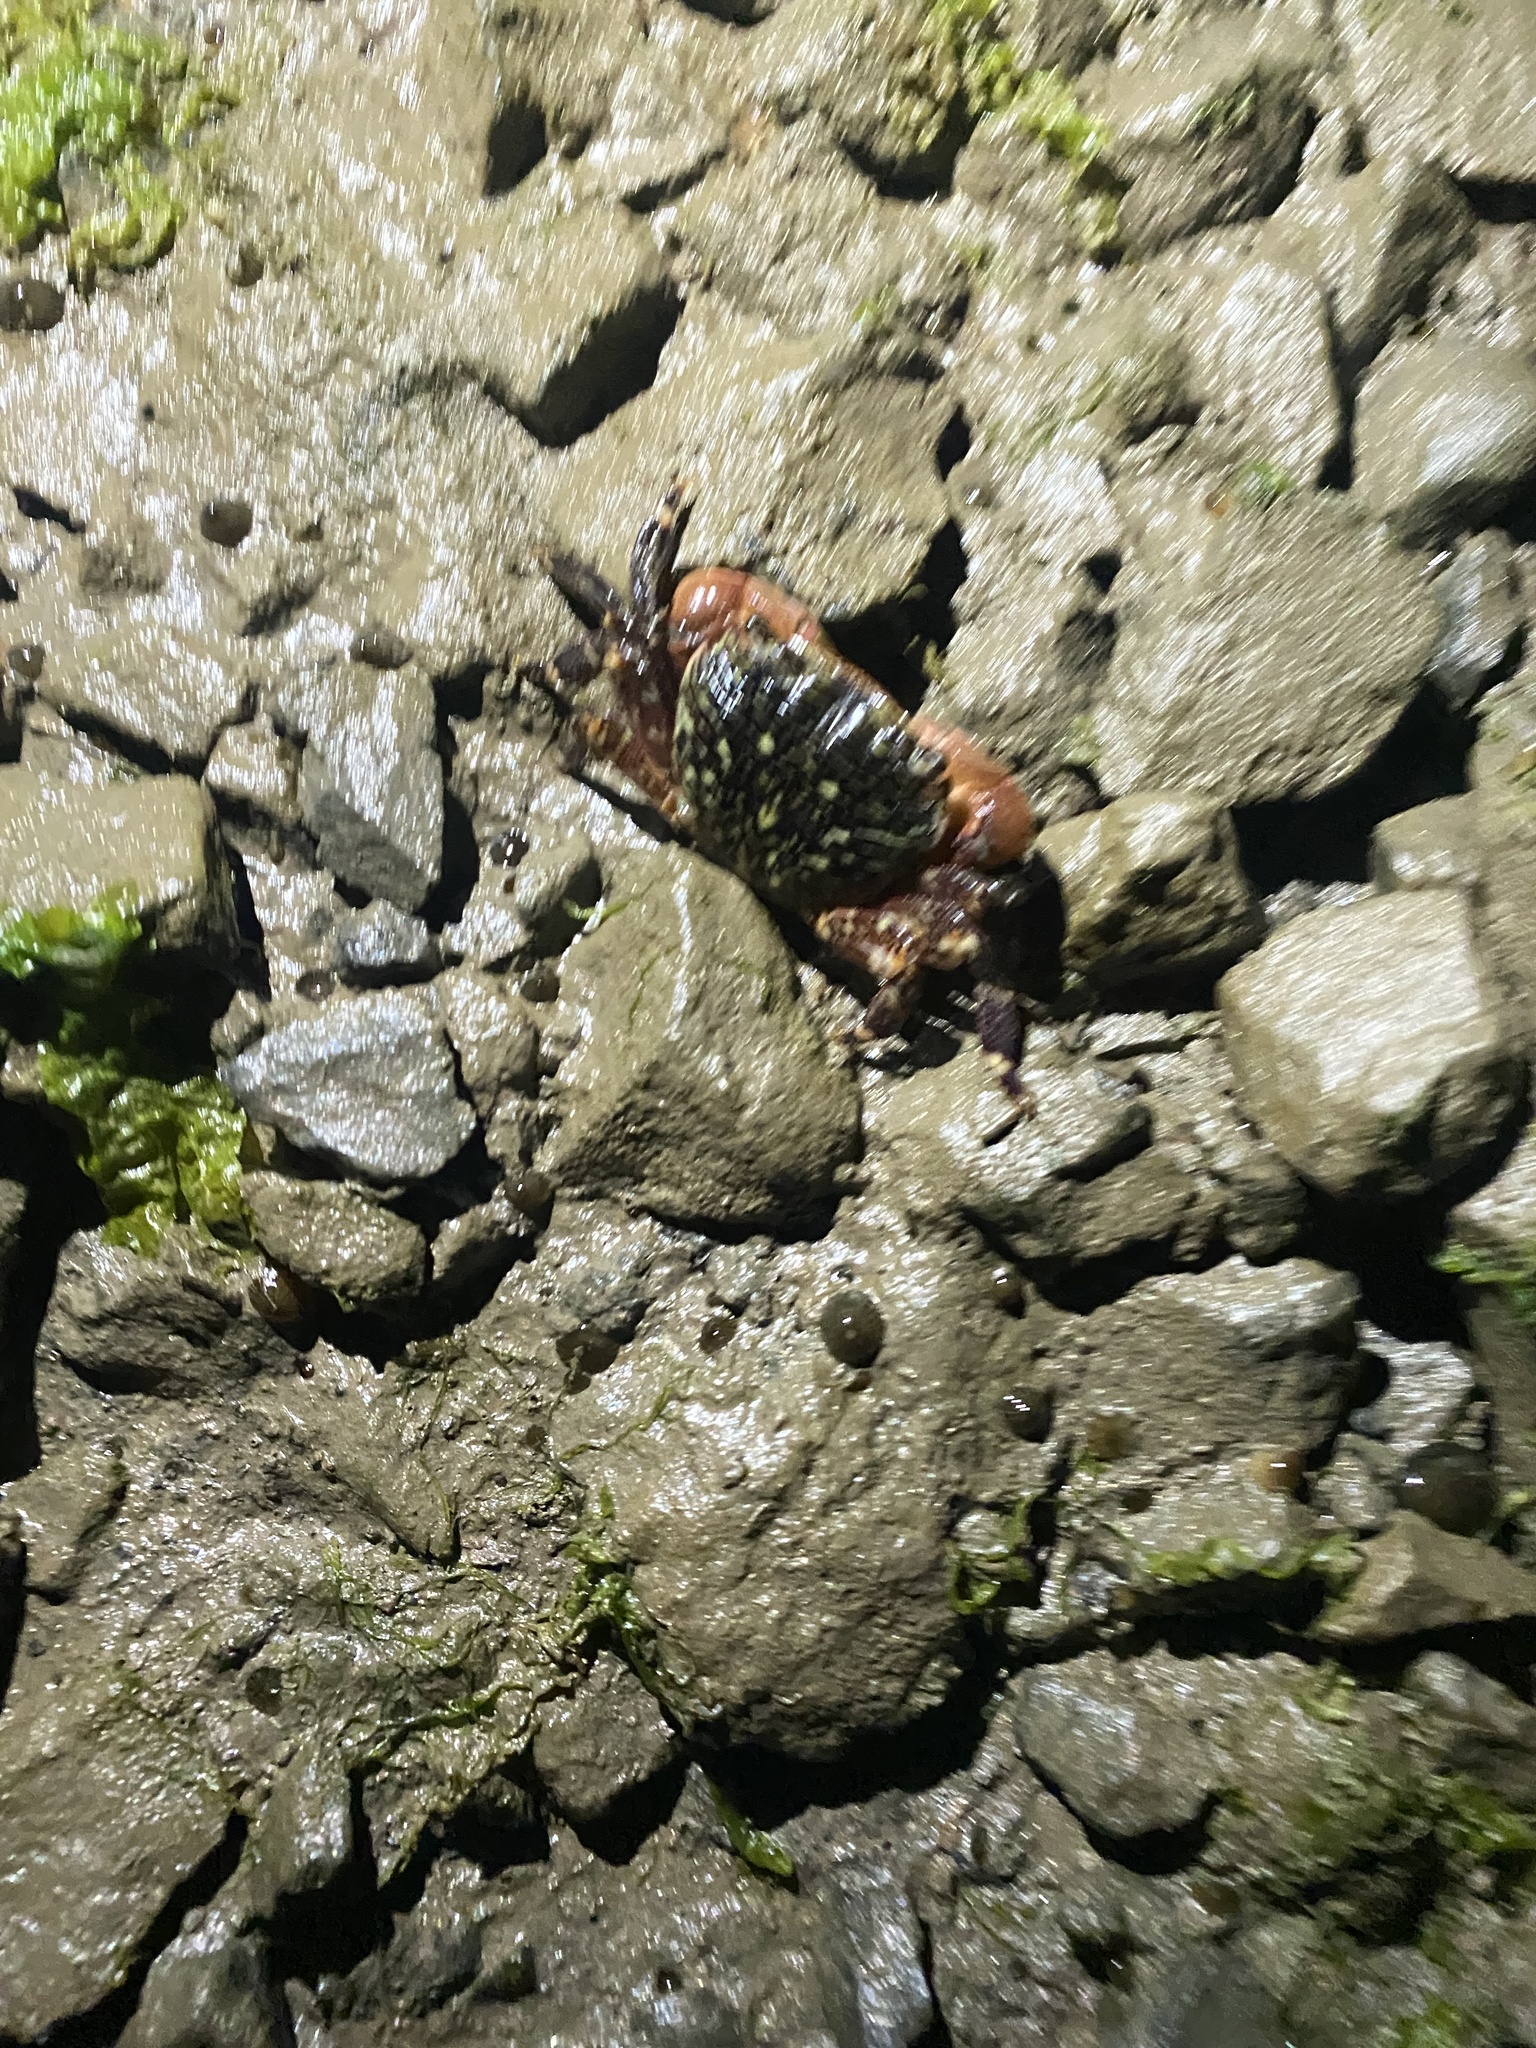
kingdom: Animalia
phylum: Arthropoda
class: Malacostraca
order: Decapoda
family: Grapsidae
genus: Pachygrapsus
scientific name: Pachygrapsus crassipes
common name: Striped shore crab
